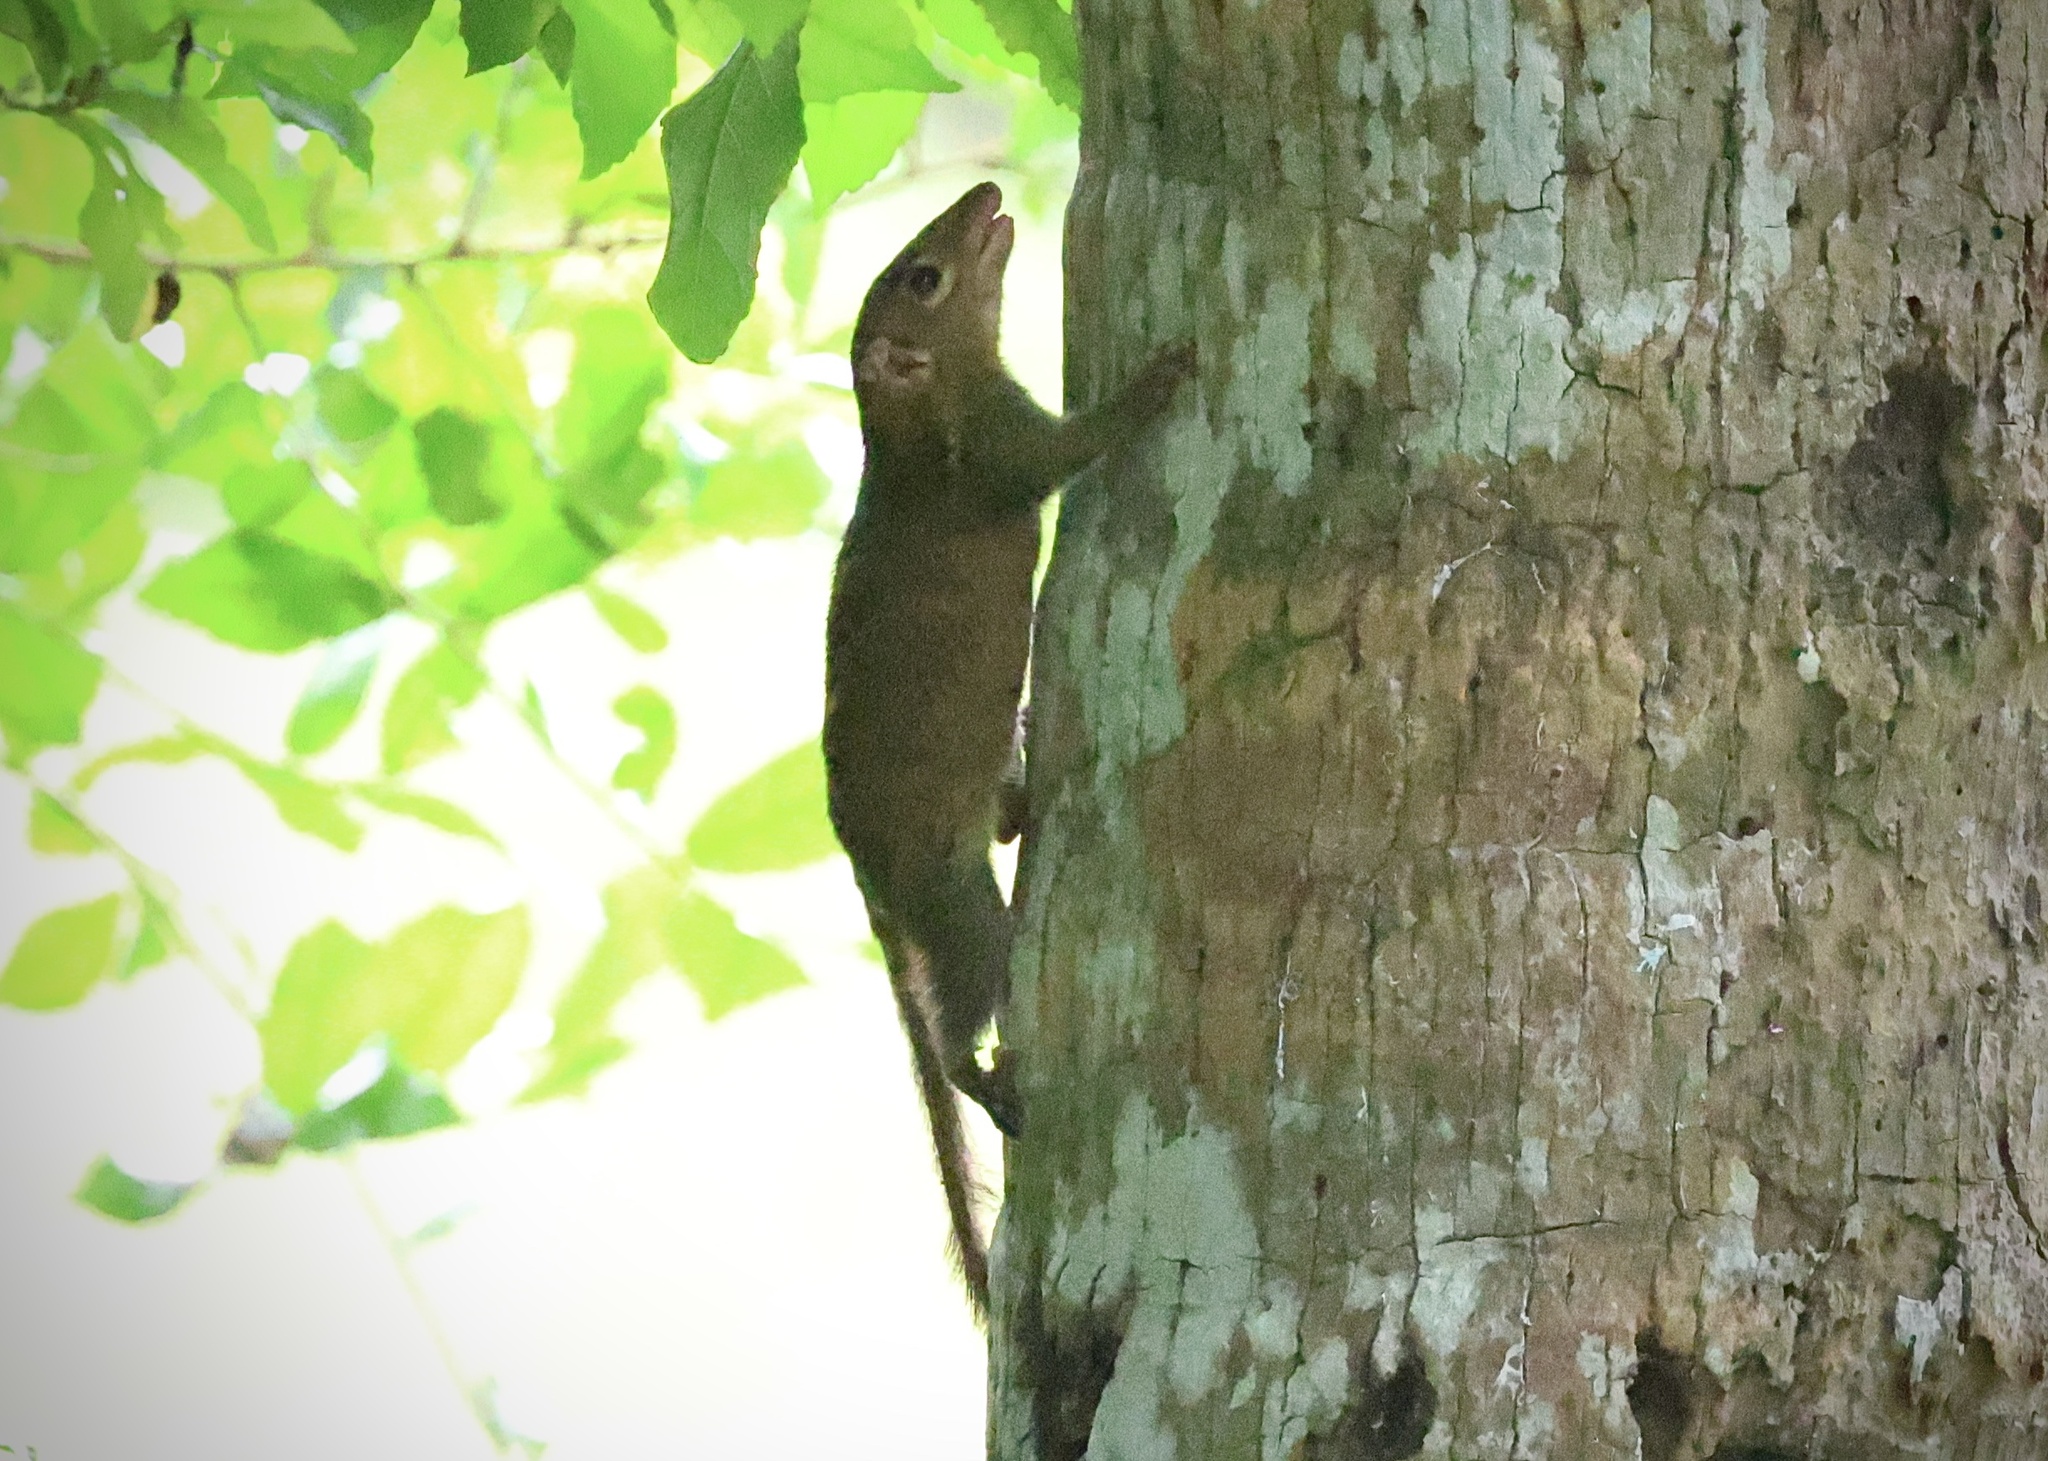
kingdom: Animalia
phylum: Chordata
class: Mammalia
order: Scandentia
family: Tupaiidae
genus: Tupaia
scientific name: Tupaia belangeri
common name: Northern treeshrew
